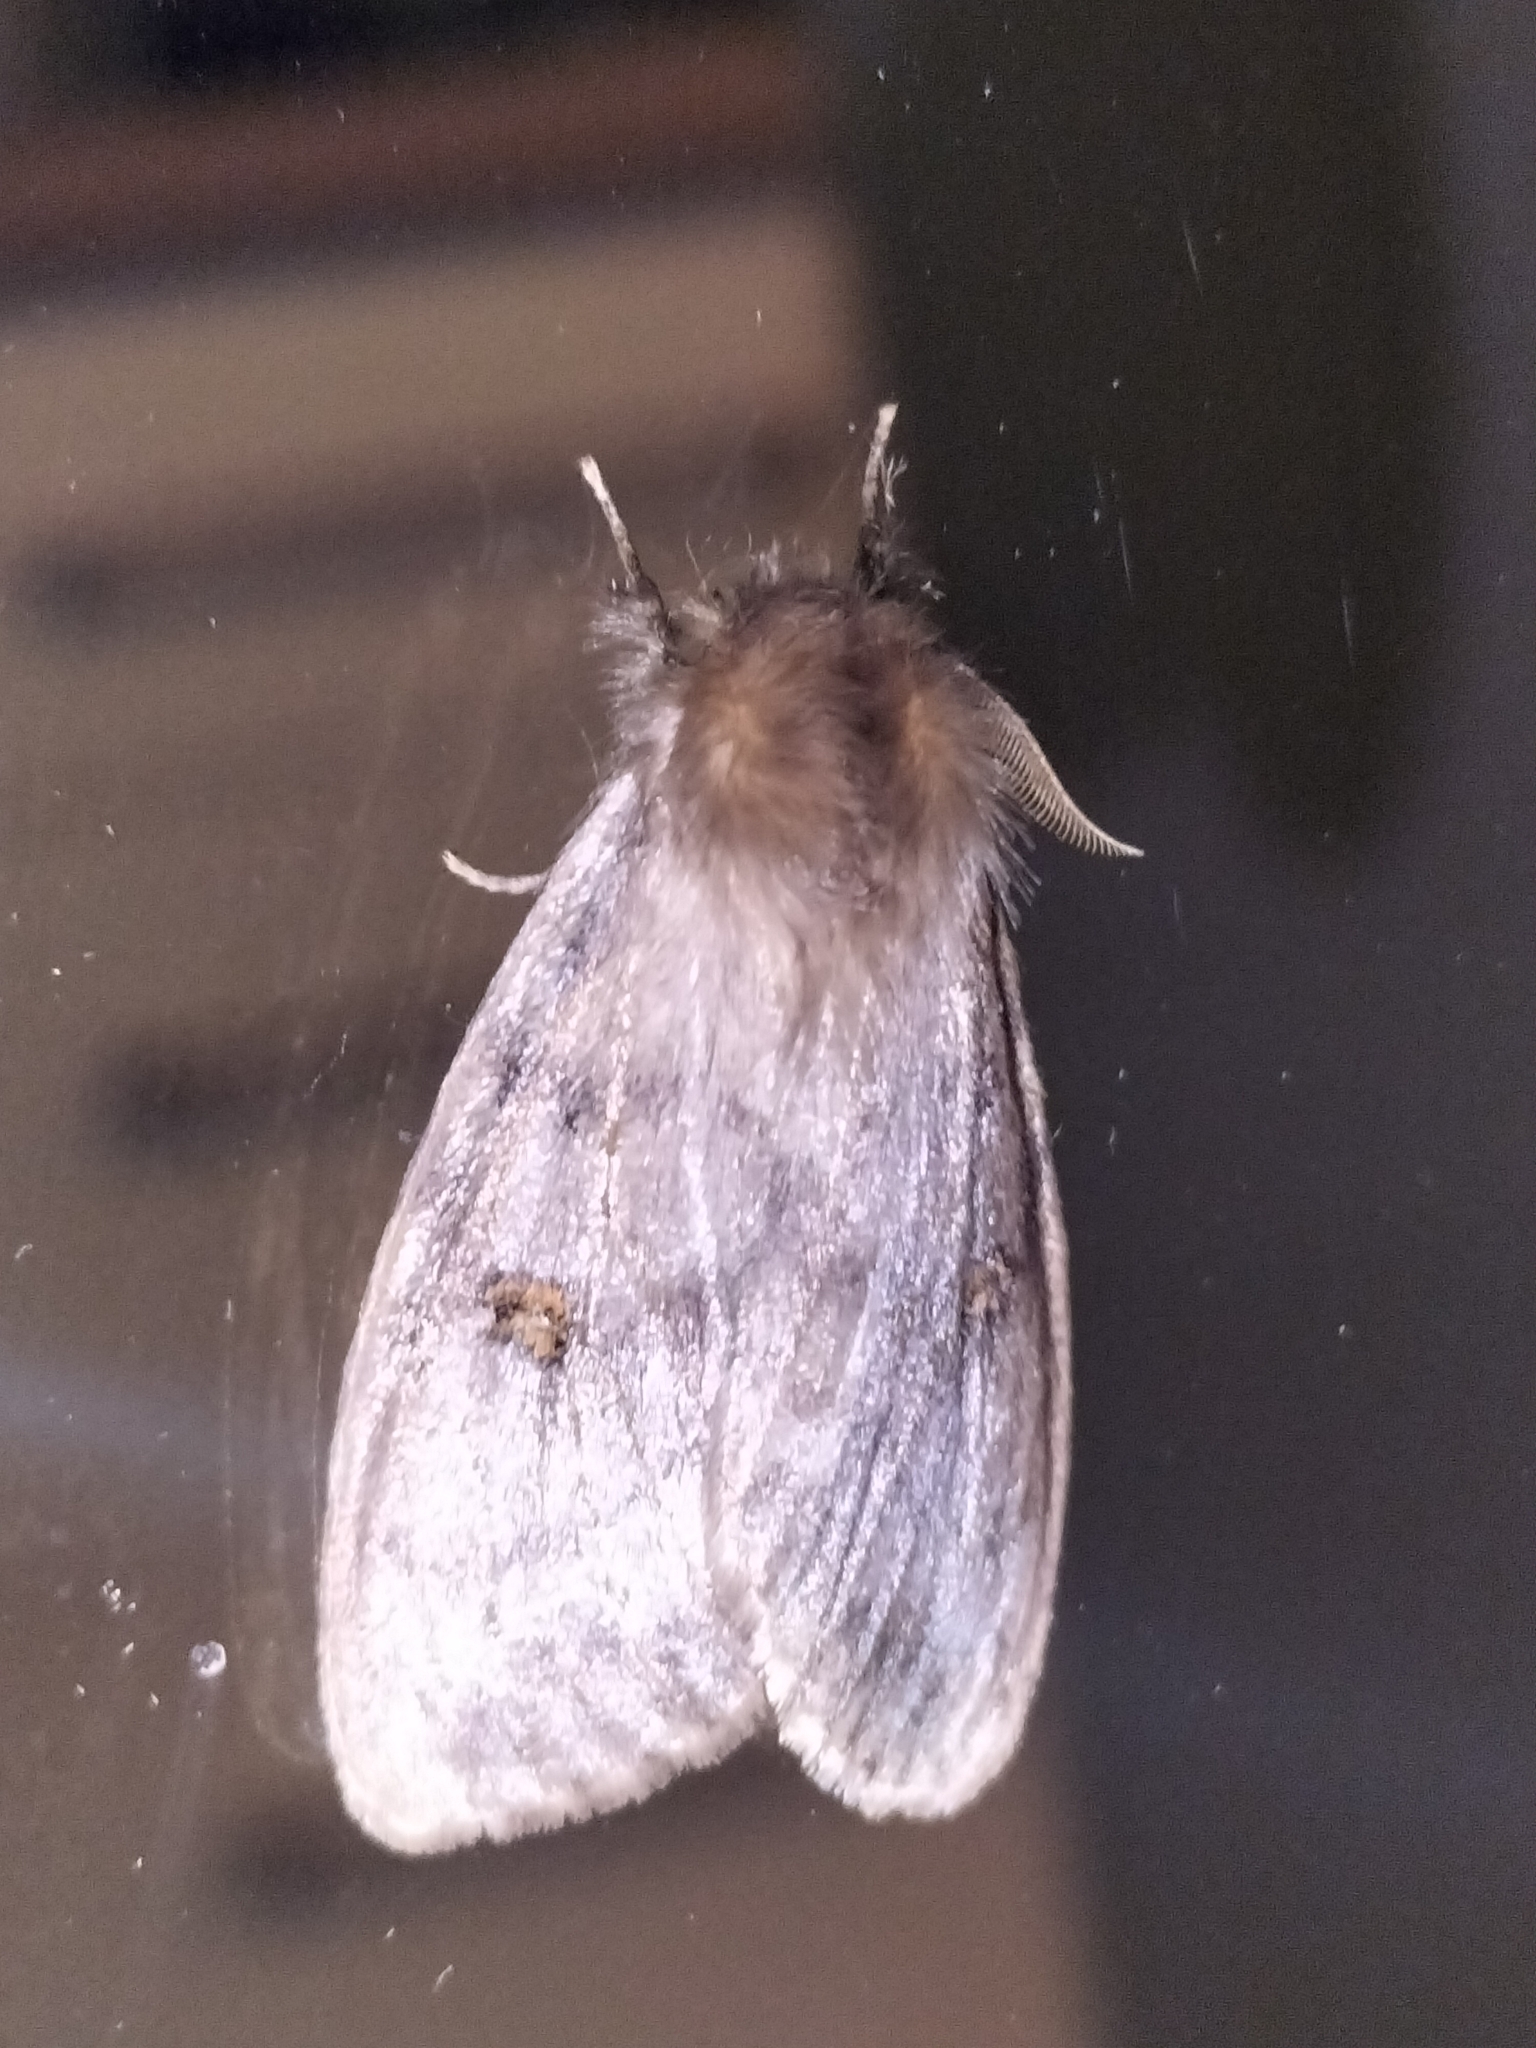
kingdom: Animalia
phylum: Arthropoda
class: Insecta
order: Lepidoptera
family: Erebidae
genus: Leptocneria
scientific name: Leptocneria reducta
